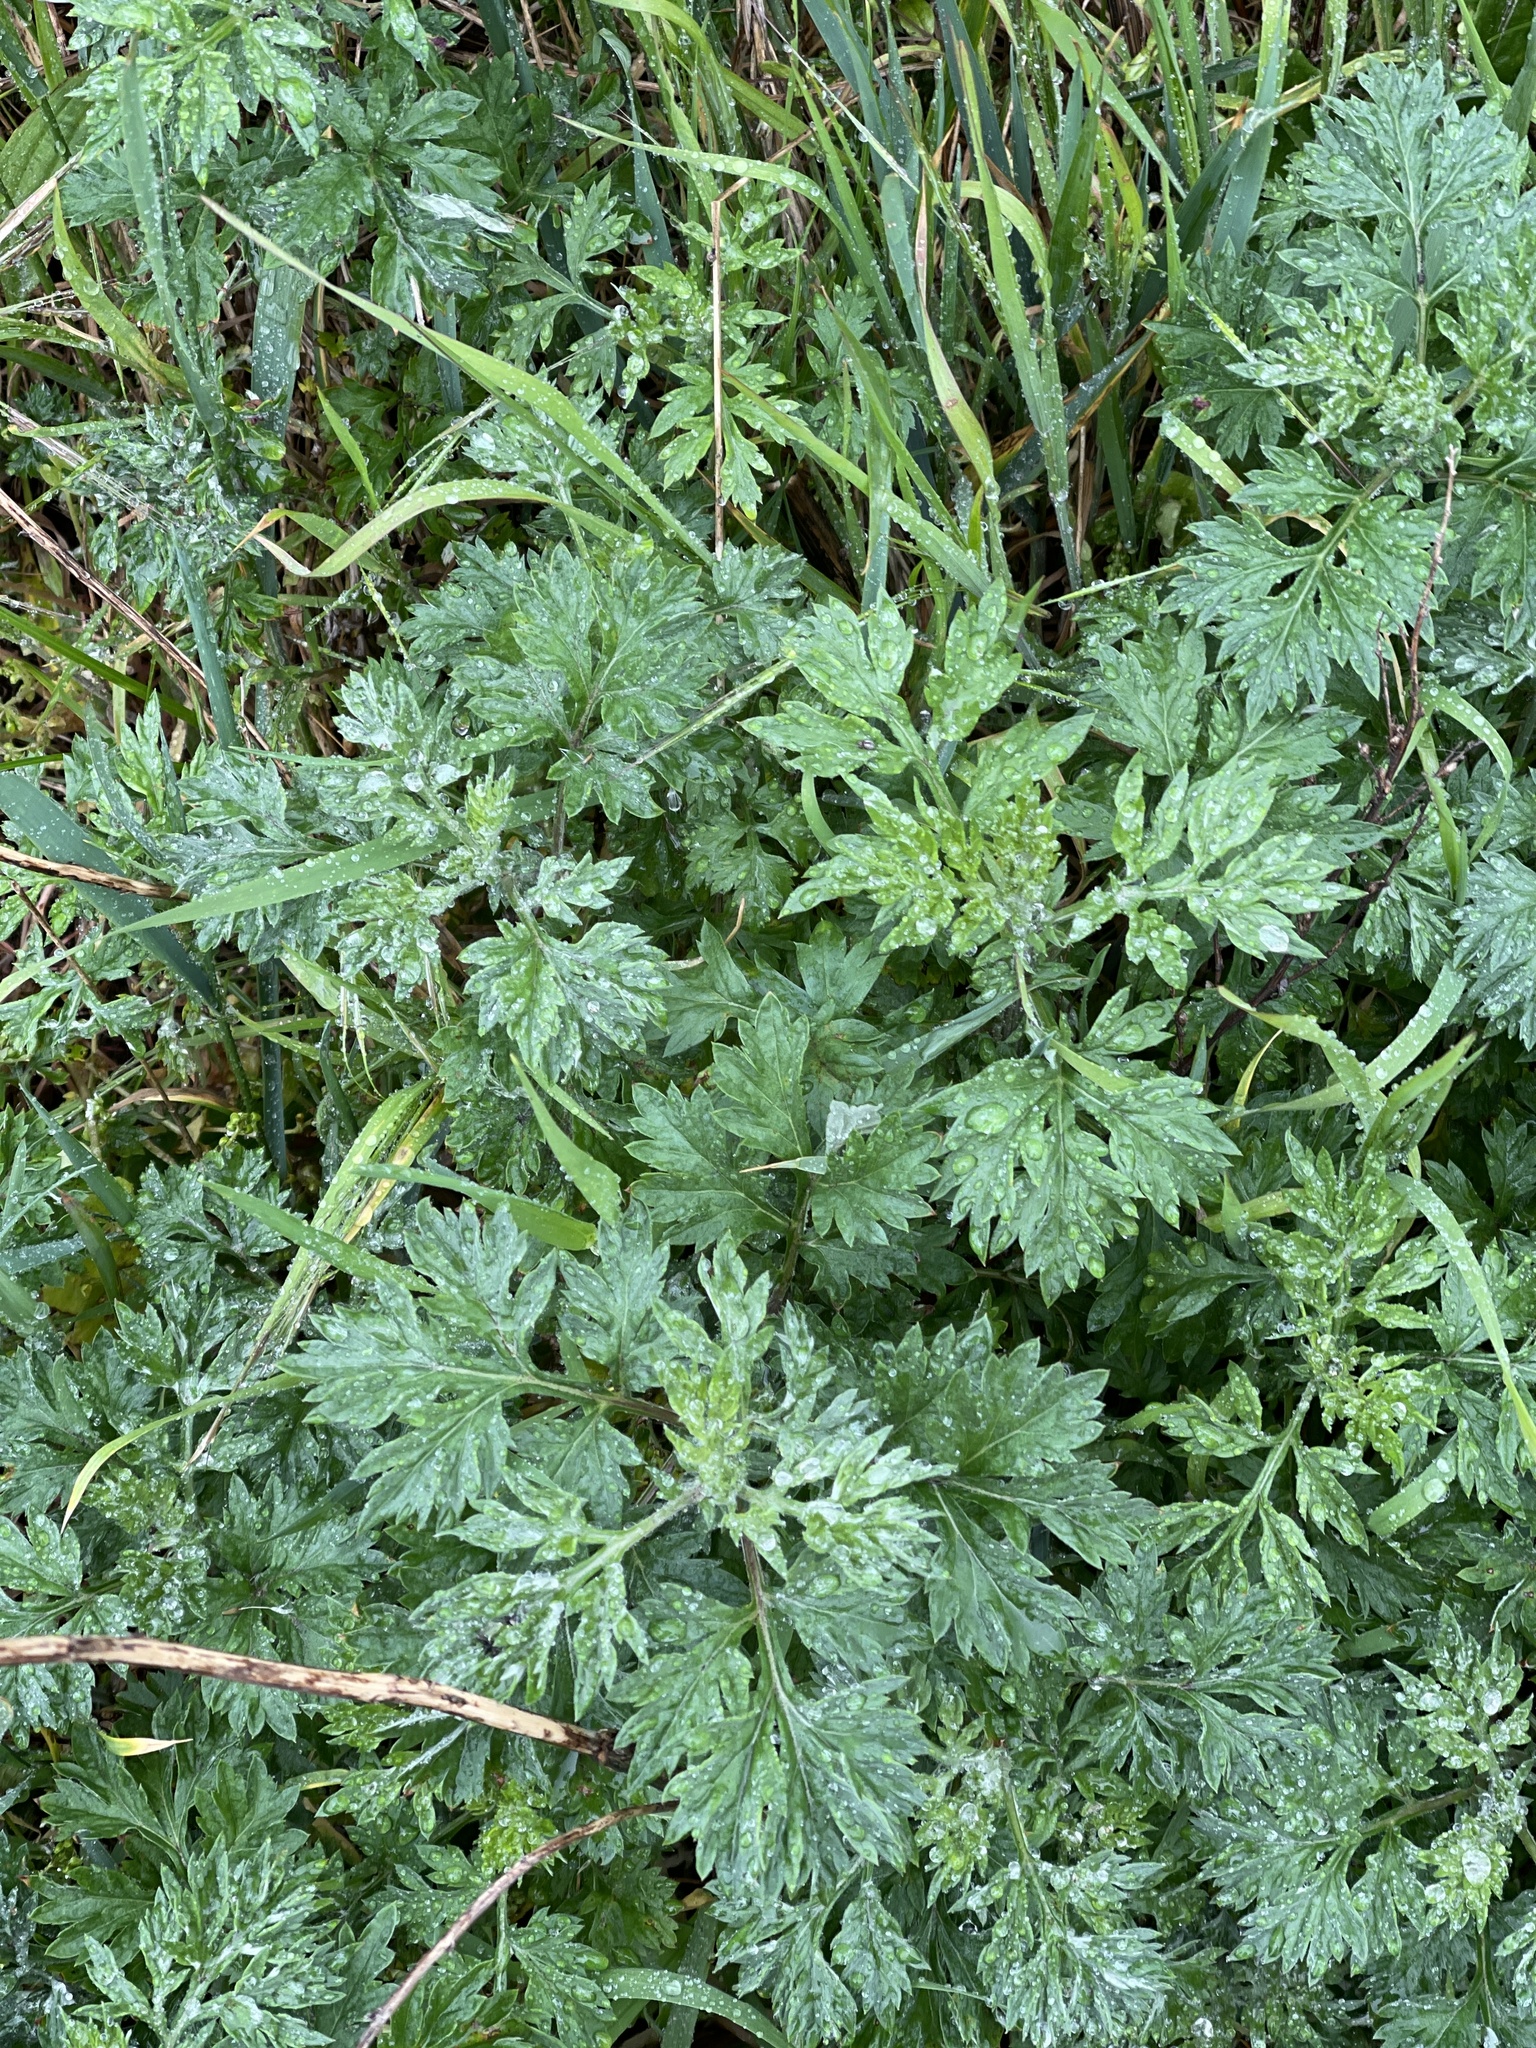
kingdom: Plantae
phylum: Tracheophyta
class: Magnoliopsida
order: Asterales
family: Asteraceae
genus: Artemisia
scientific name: Artemisia vulgaris
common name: Mugwort
